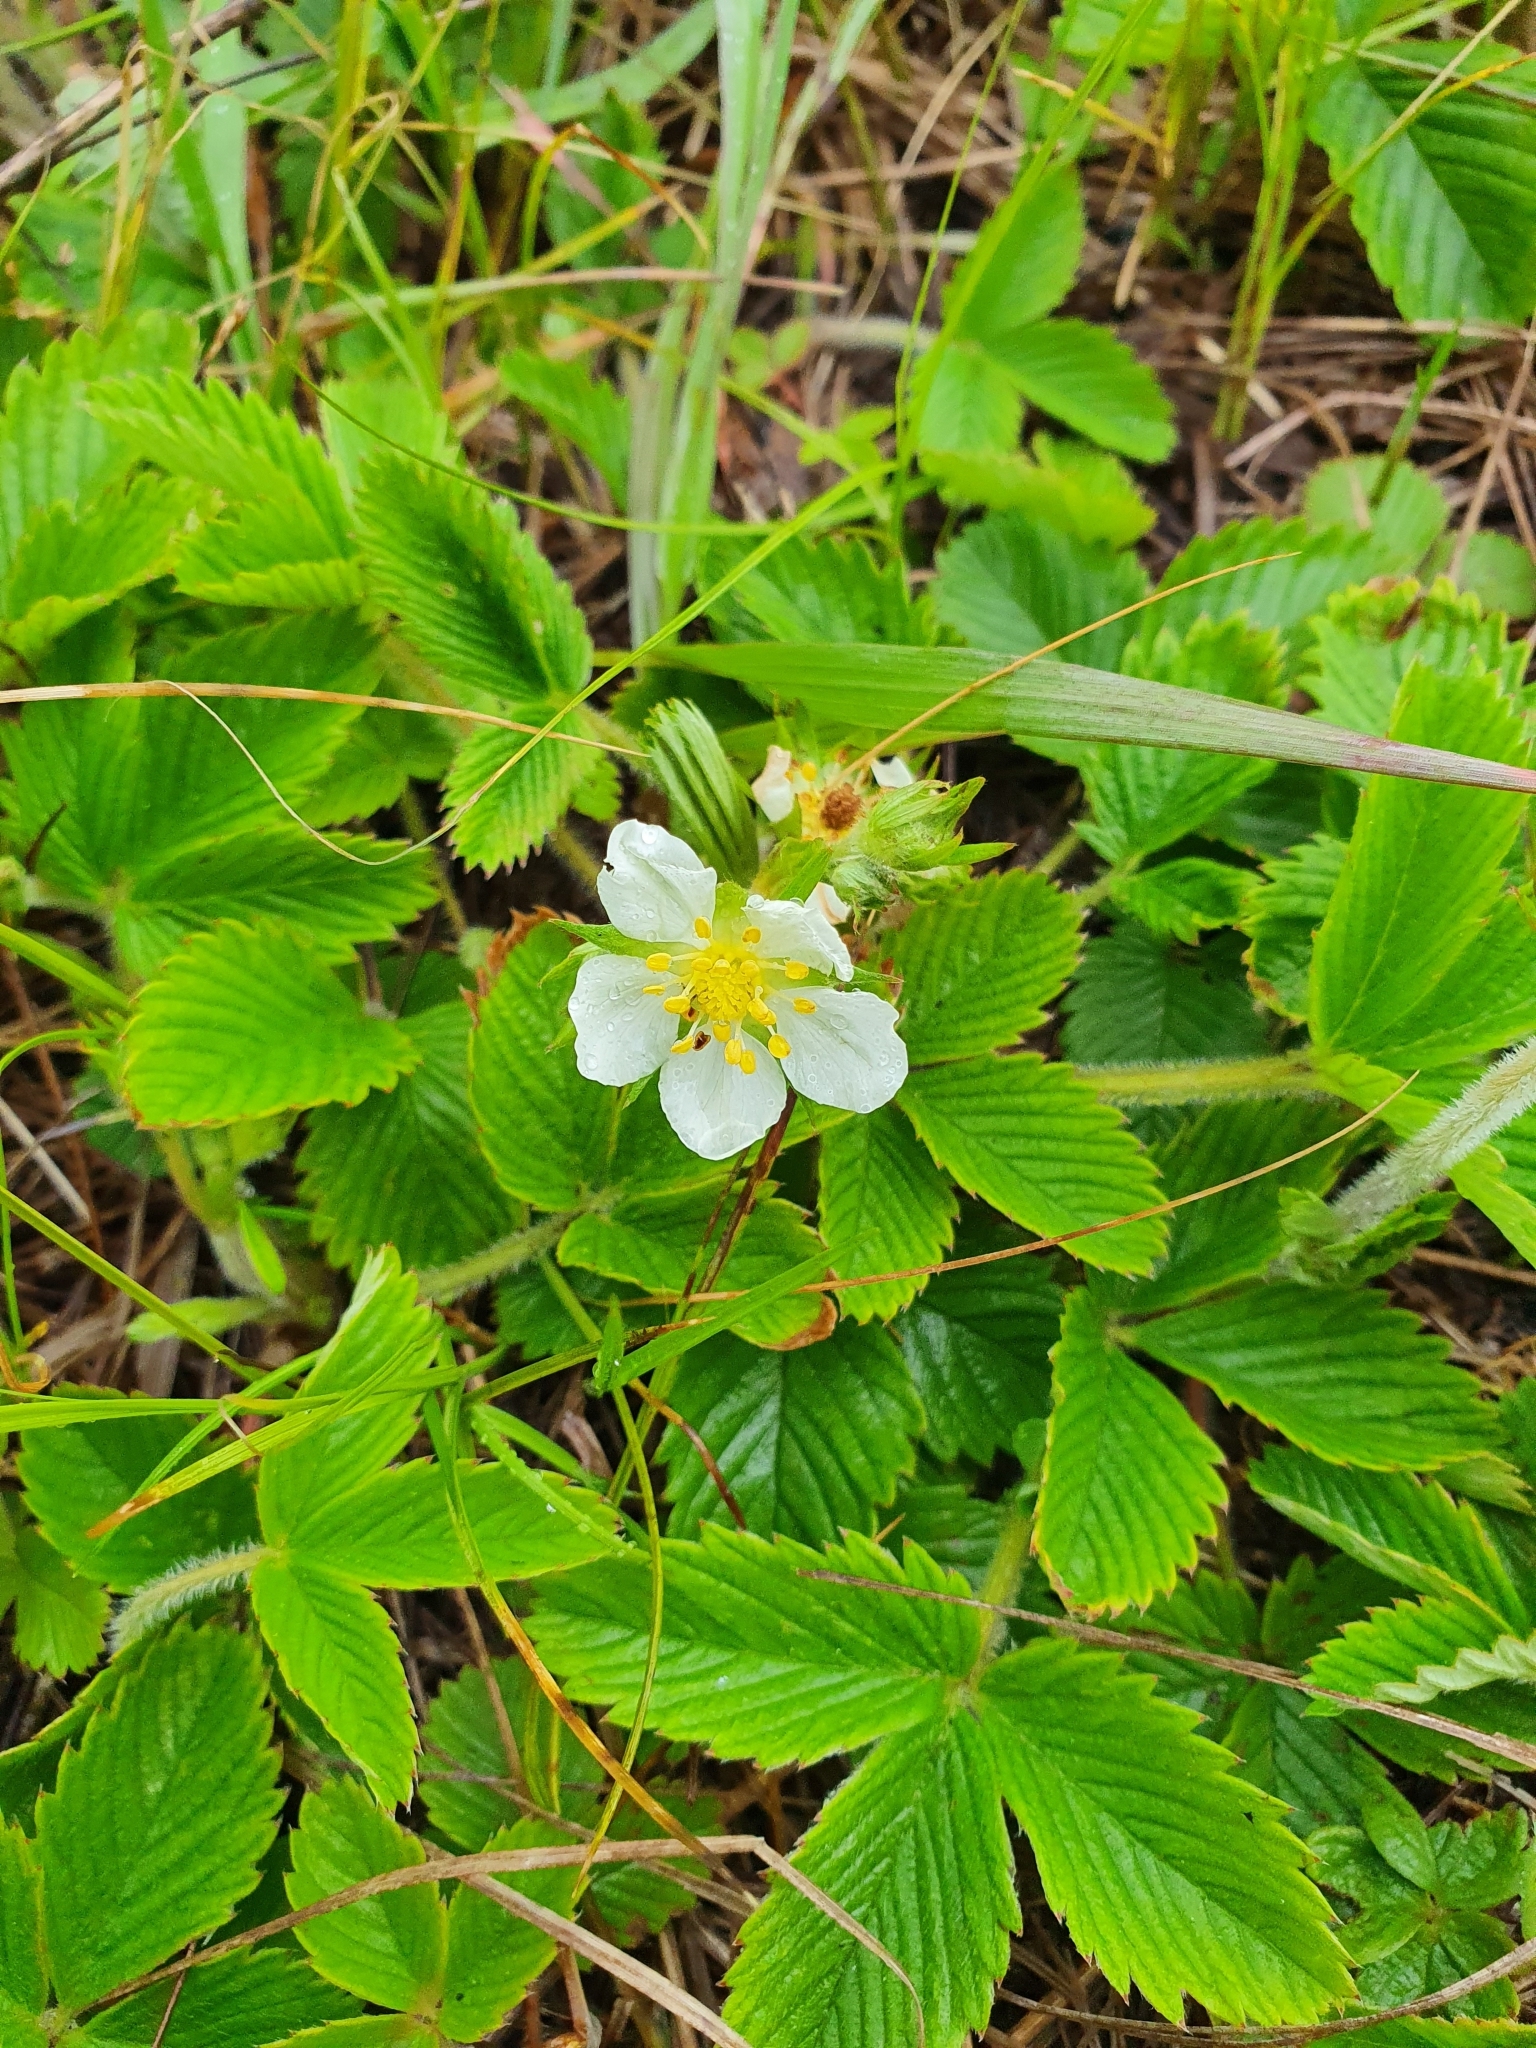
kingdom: Plantae
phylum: Tracheophyta
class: Magnoliopsida
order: Rosales
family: Rosaceae
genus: Fragaria
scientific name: Fragaria viridis
